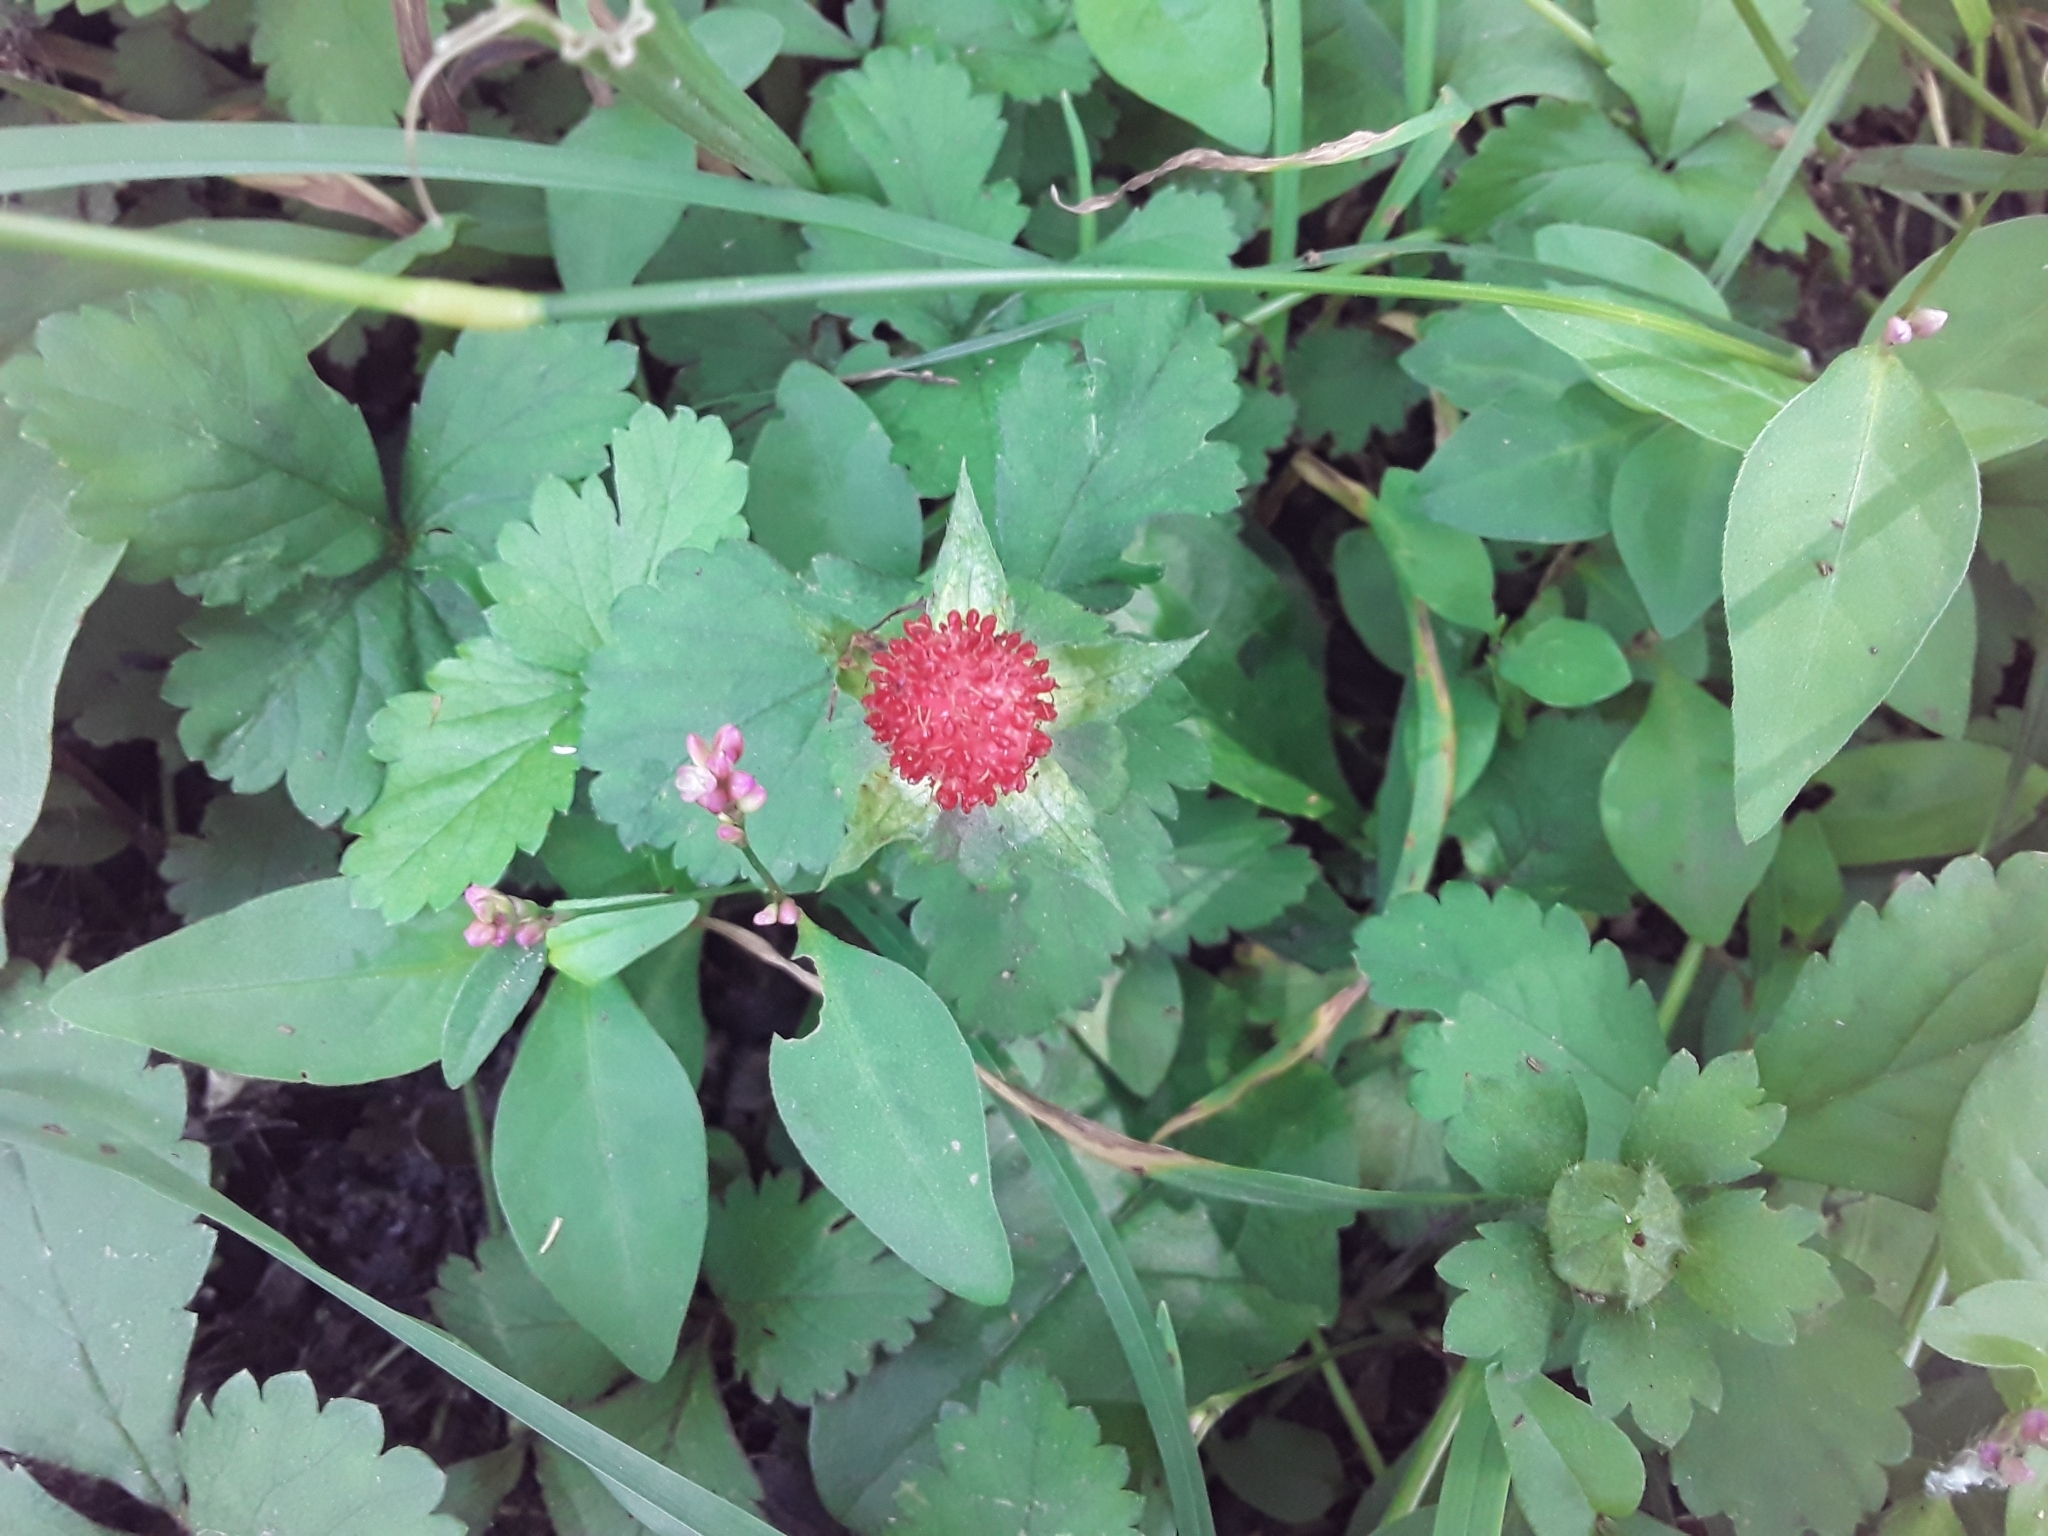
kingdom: Plantae
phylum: Tracheophyta
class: Magnoliopsida
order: Rosales
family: Rosaceae
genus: Potentilla
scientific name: Potentilla indica
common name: Yellow-flowered strawberry
